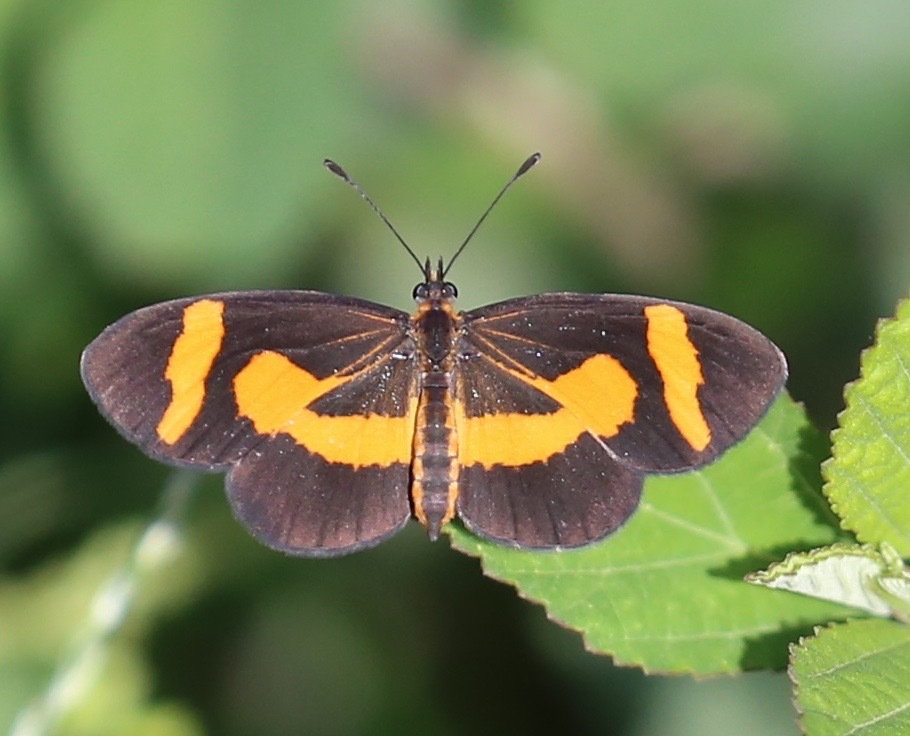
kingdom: Animalia
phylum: Arthropoda
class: Insecta
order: Lepidoptera
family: Nymphalidae
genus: Microtia
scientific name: Microtia elva
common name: Elf
